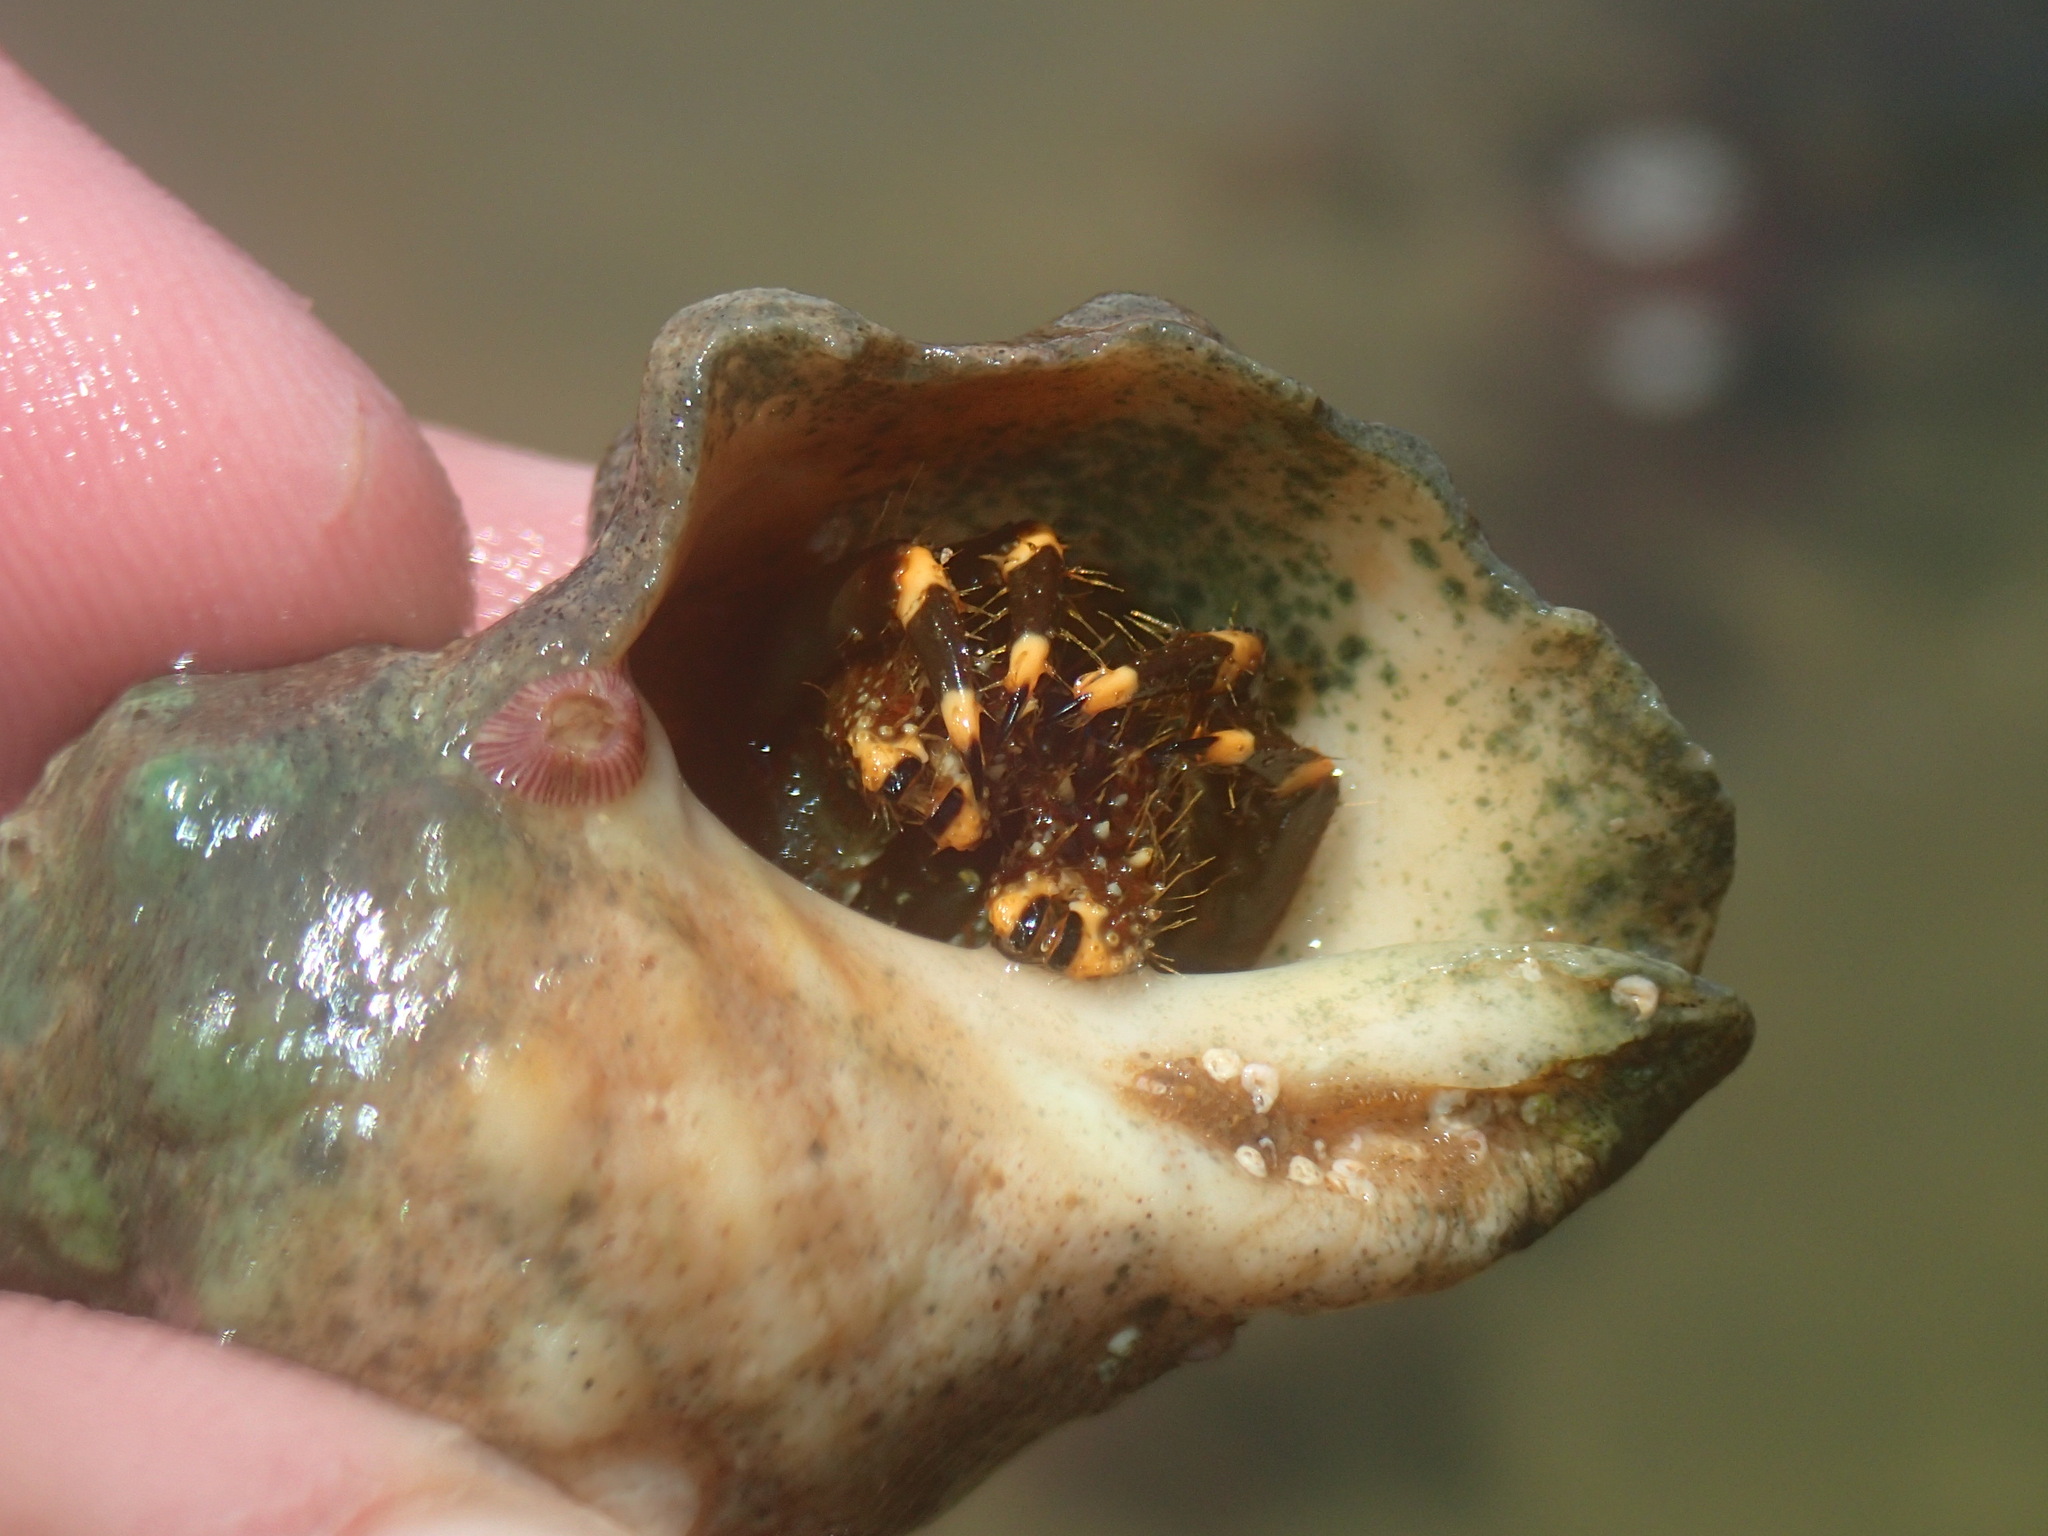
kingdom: Animalia
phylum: Arthropoda
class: Malacostraca
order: Decapoda
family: Diogenidae
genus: Clibanarius
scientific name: Clibanarius virescens
